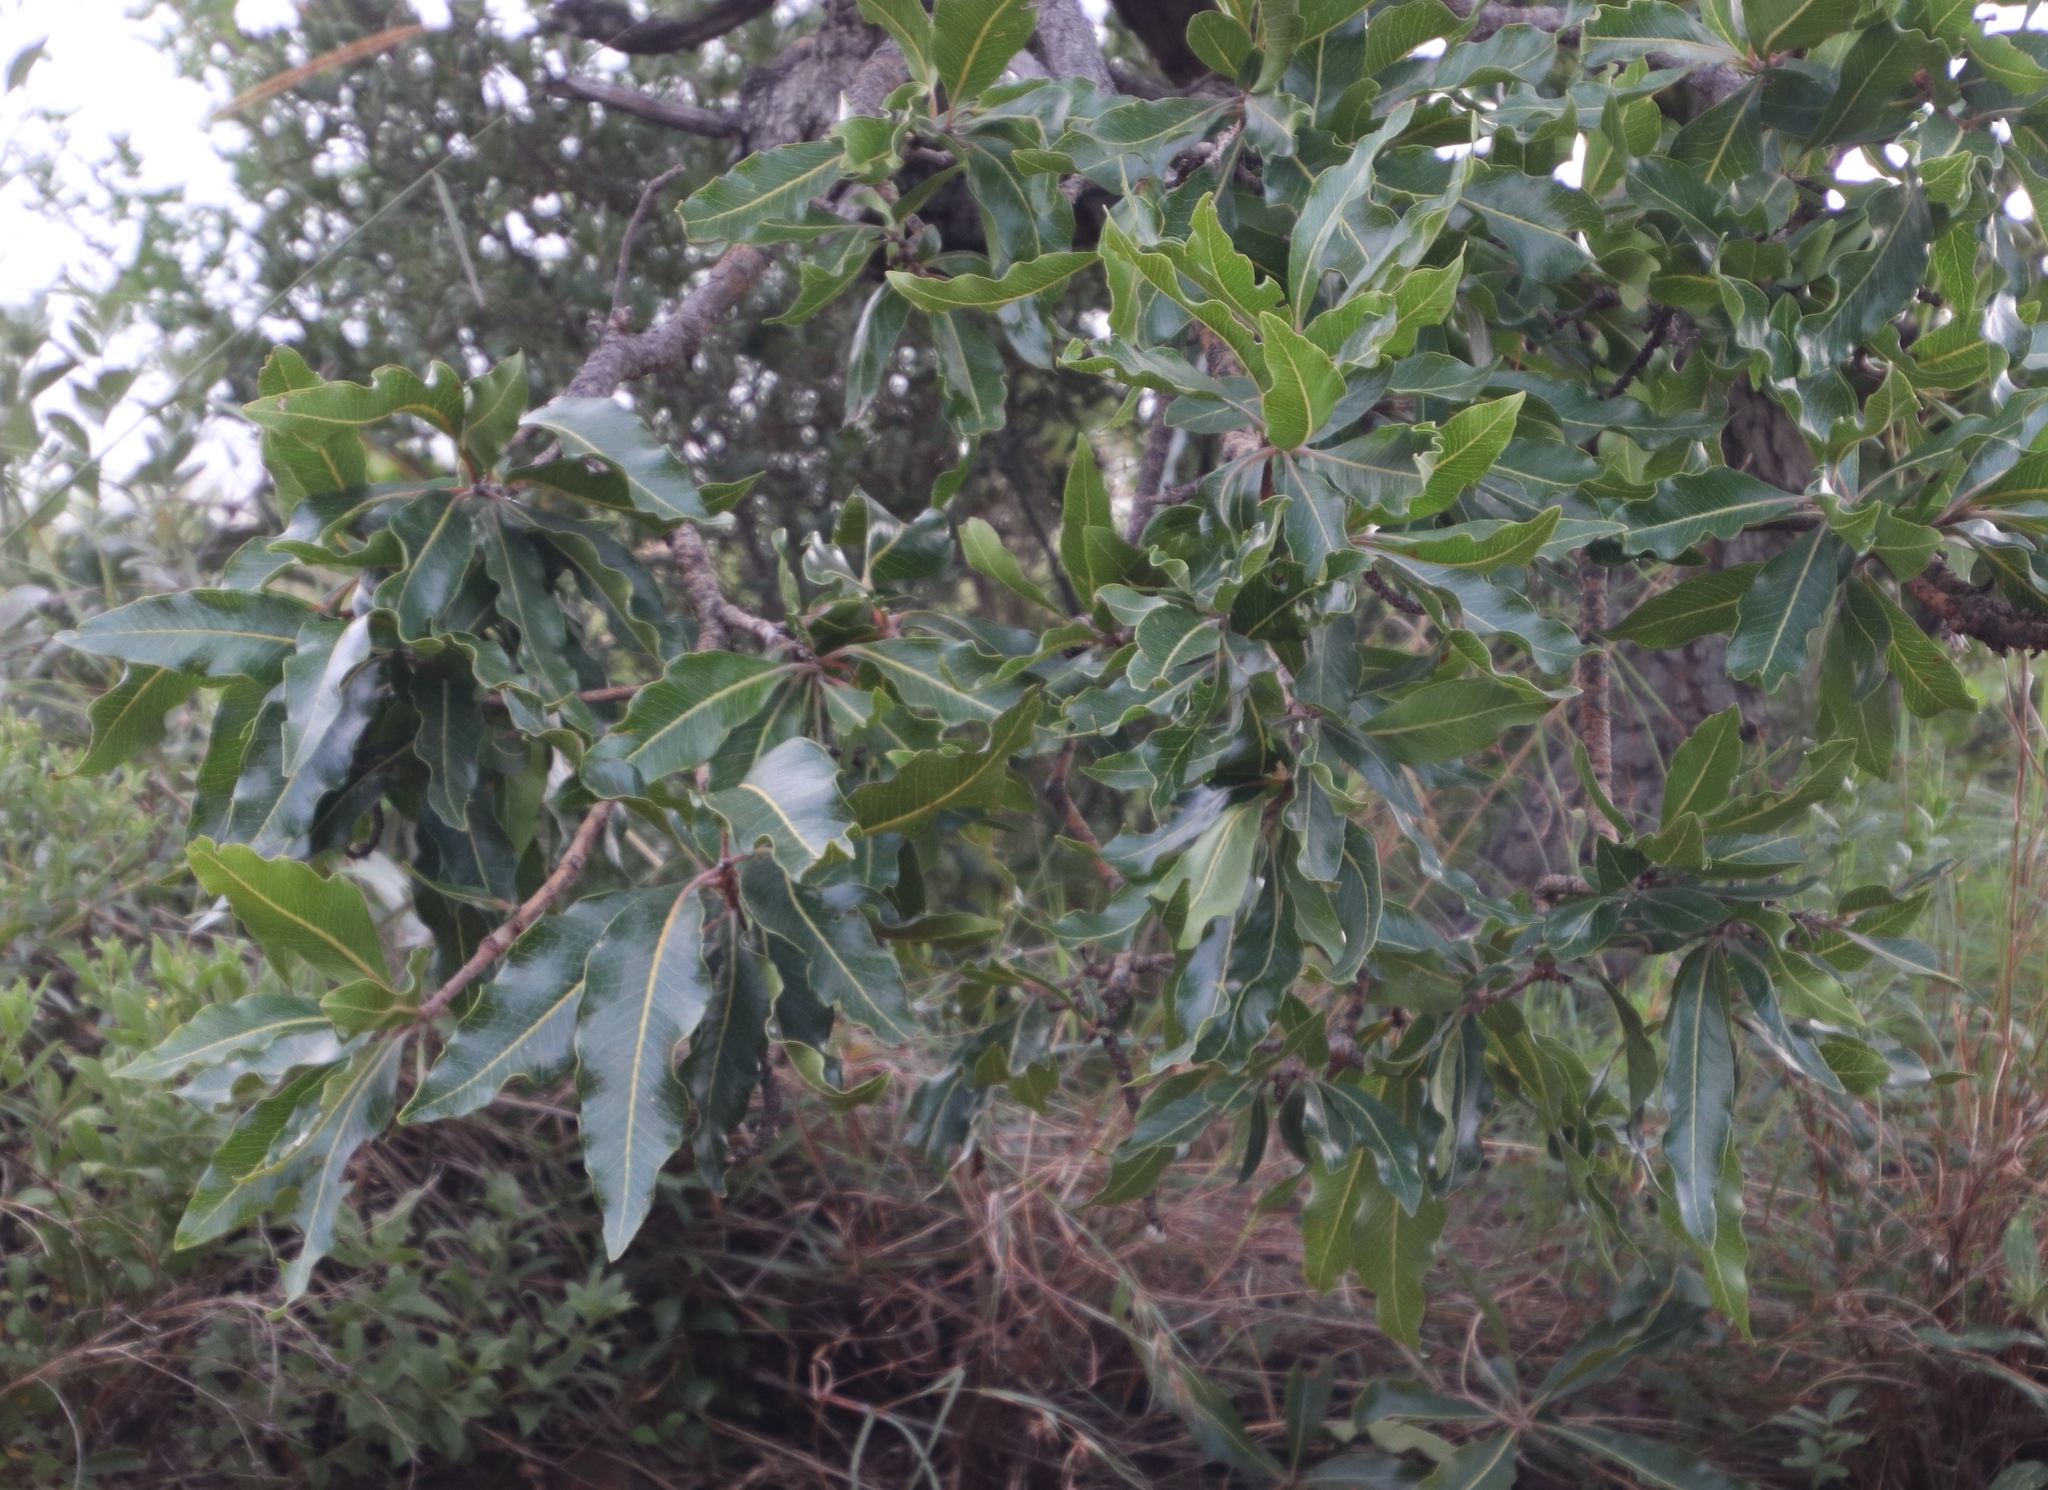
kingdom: Plantae
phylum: Tracheophyta
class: Magnoliopsida
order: Proteales
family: Proteaceae
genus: Faurea
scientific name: Faurea rochetiana
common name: Broad-leaved beech
